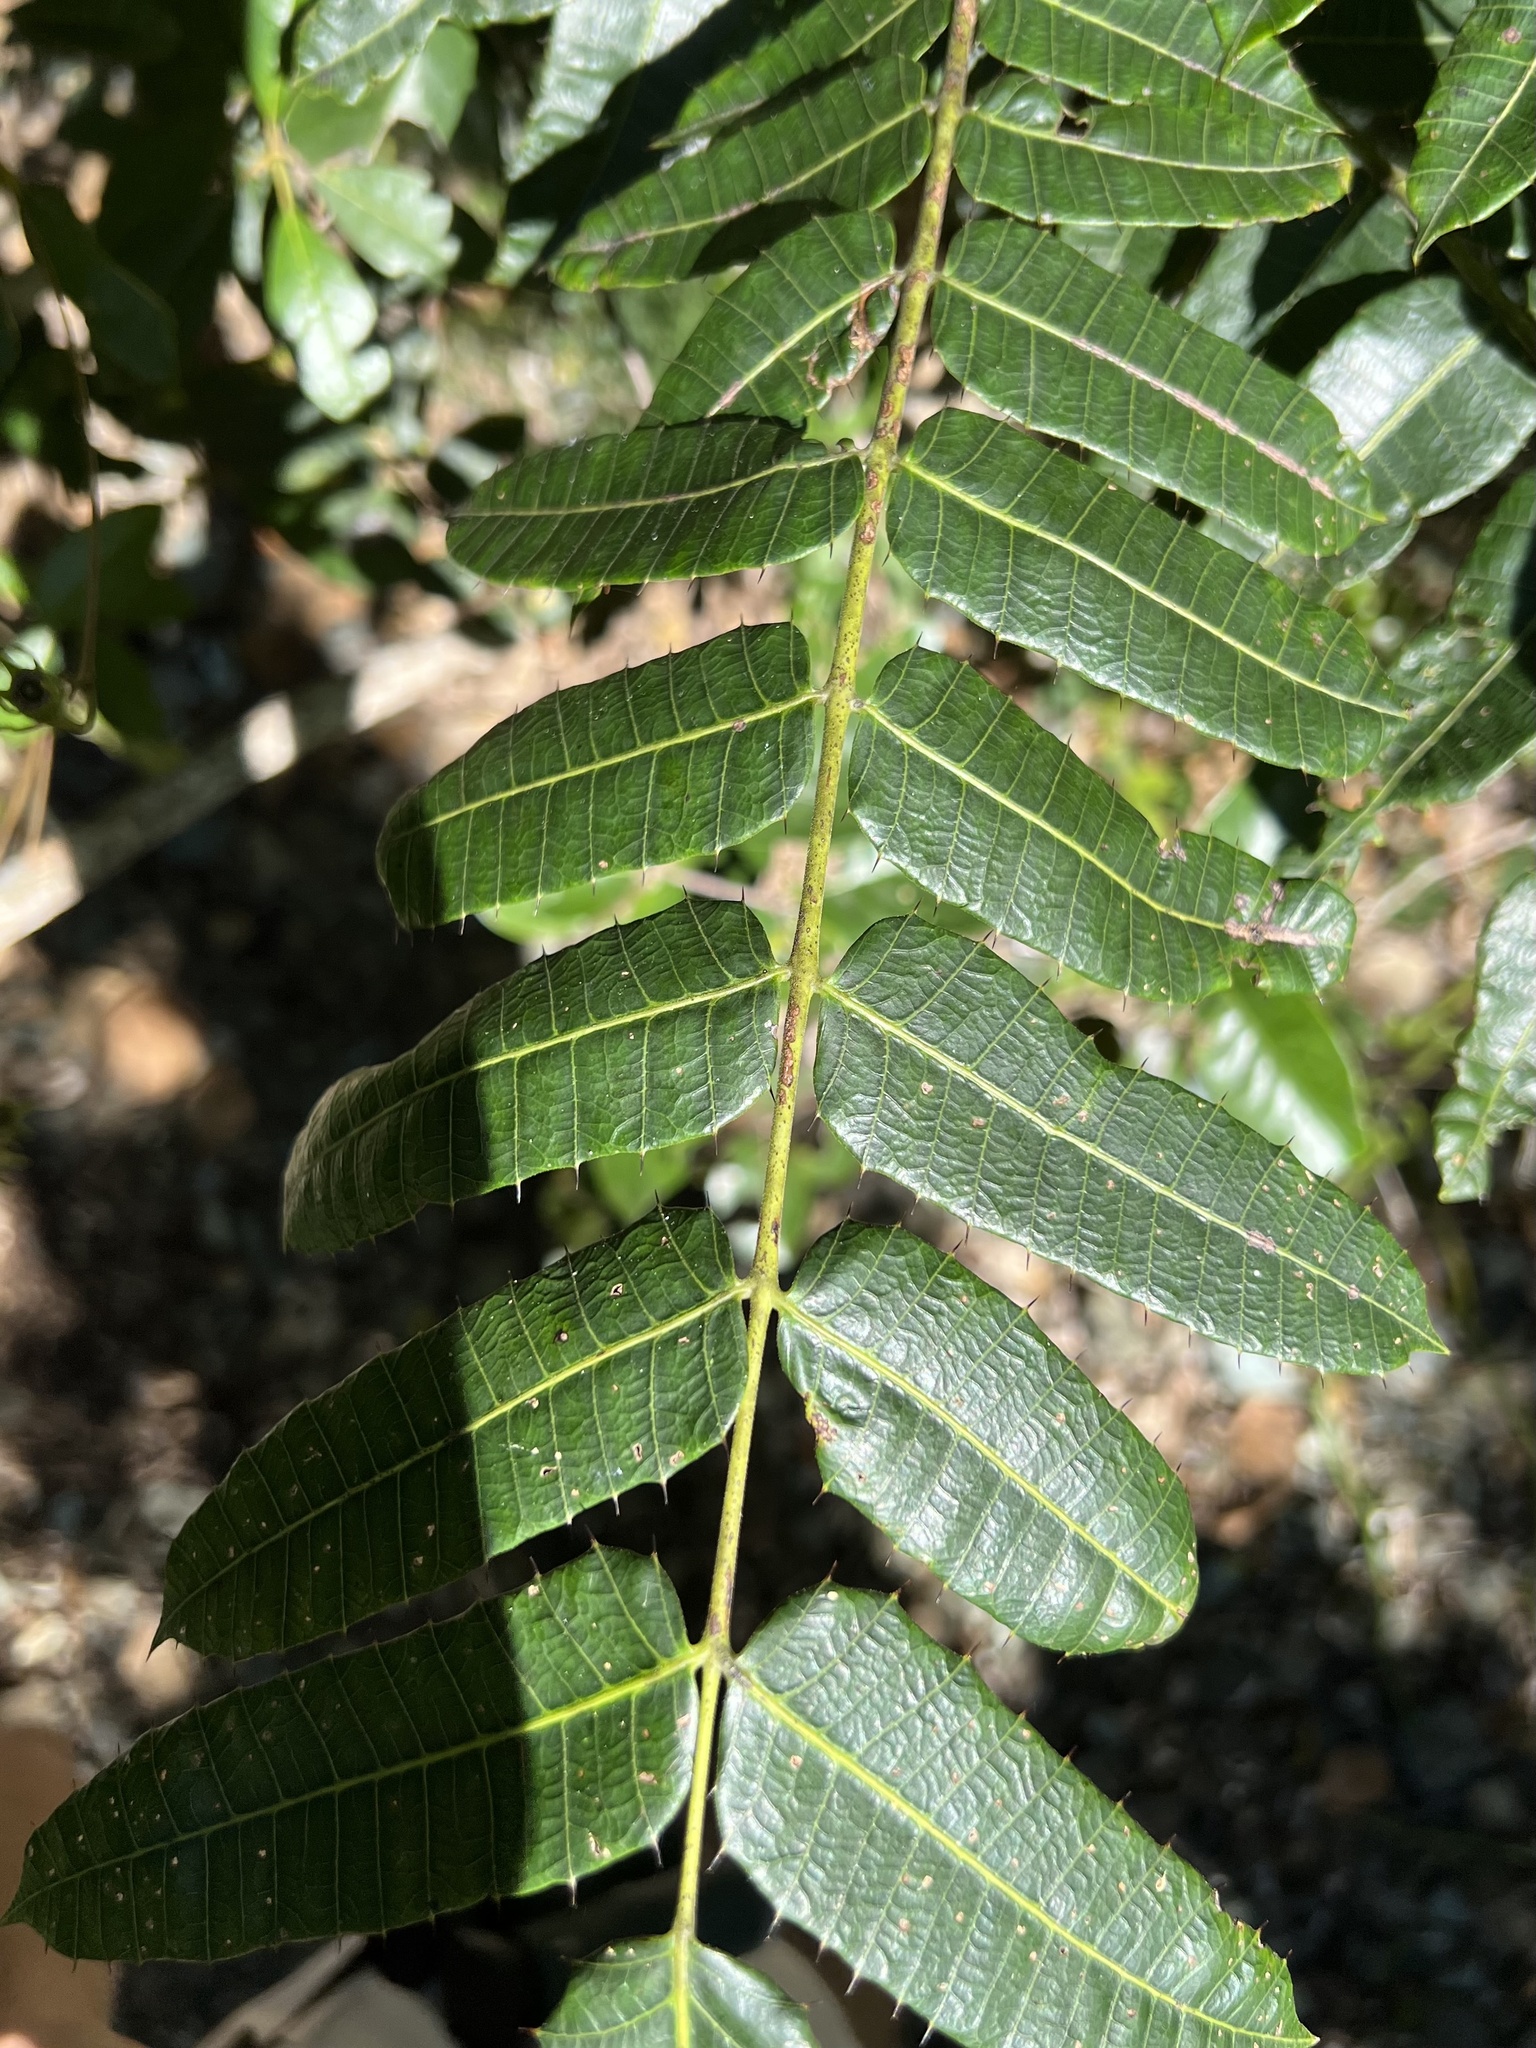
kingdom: Plantae
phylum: Tracheophyta
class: Magnoliopsida
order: Sapindales
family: Anacardiaceae
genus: Comocladia
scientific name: Comocladia glabra
